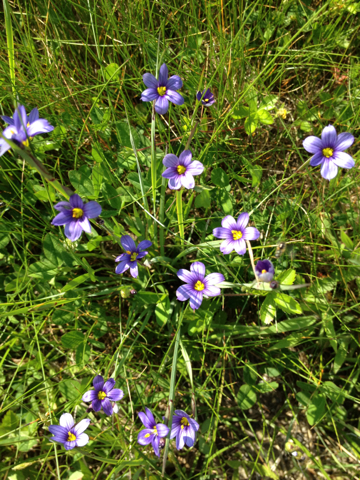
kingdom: Plantae
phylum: Tracheophyta
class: Liliopsida
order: Asparagales
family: Iridaceae
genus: Sisyrinchium
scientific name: Sisyrinchium montanum
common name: American blue-eyed-grass
